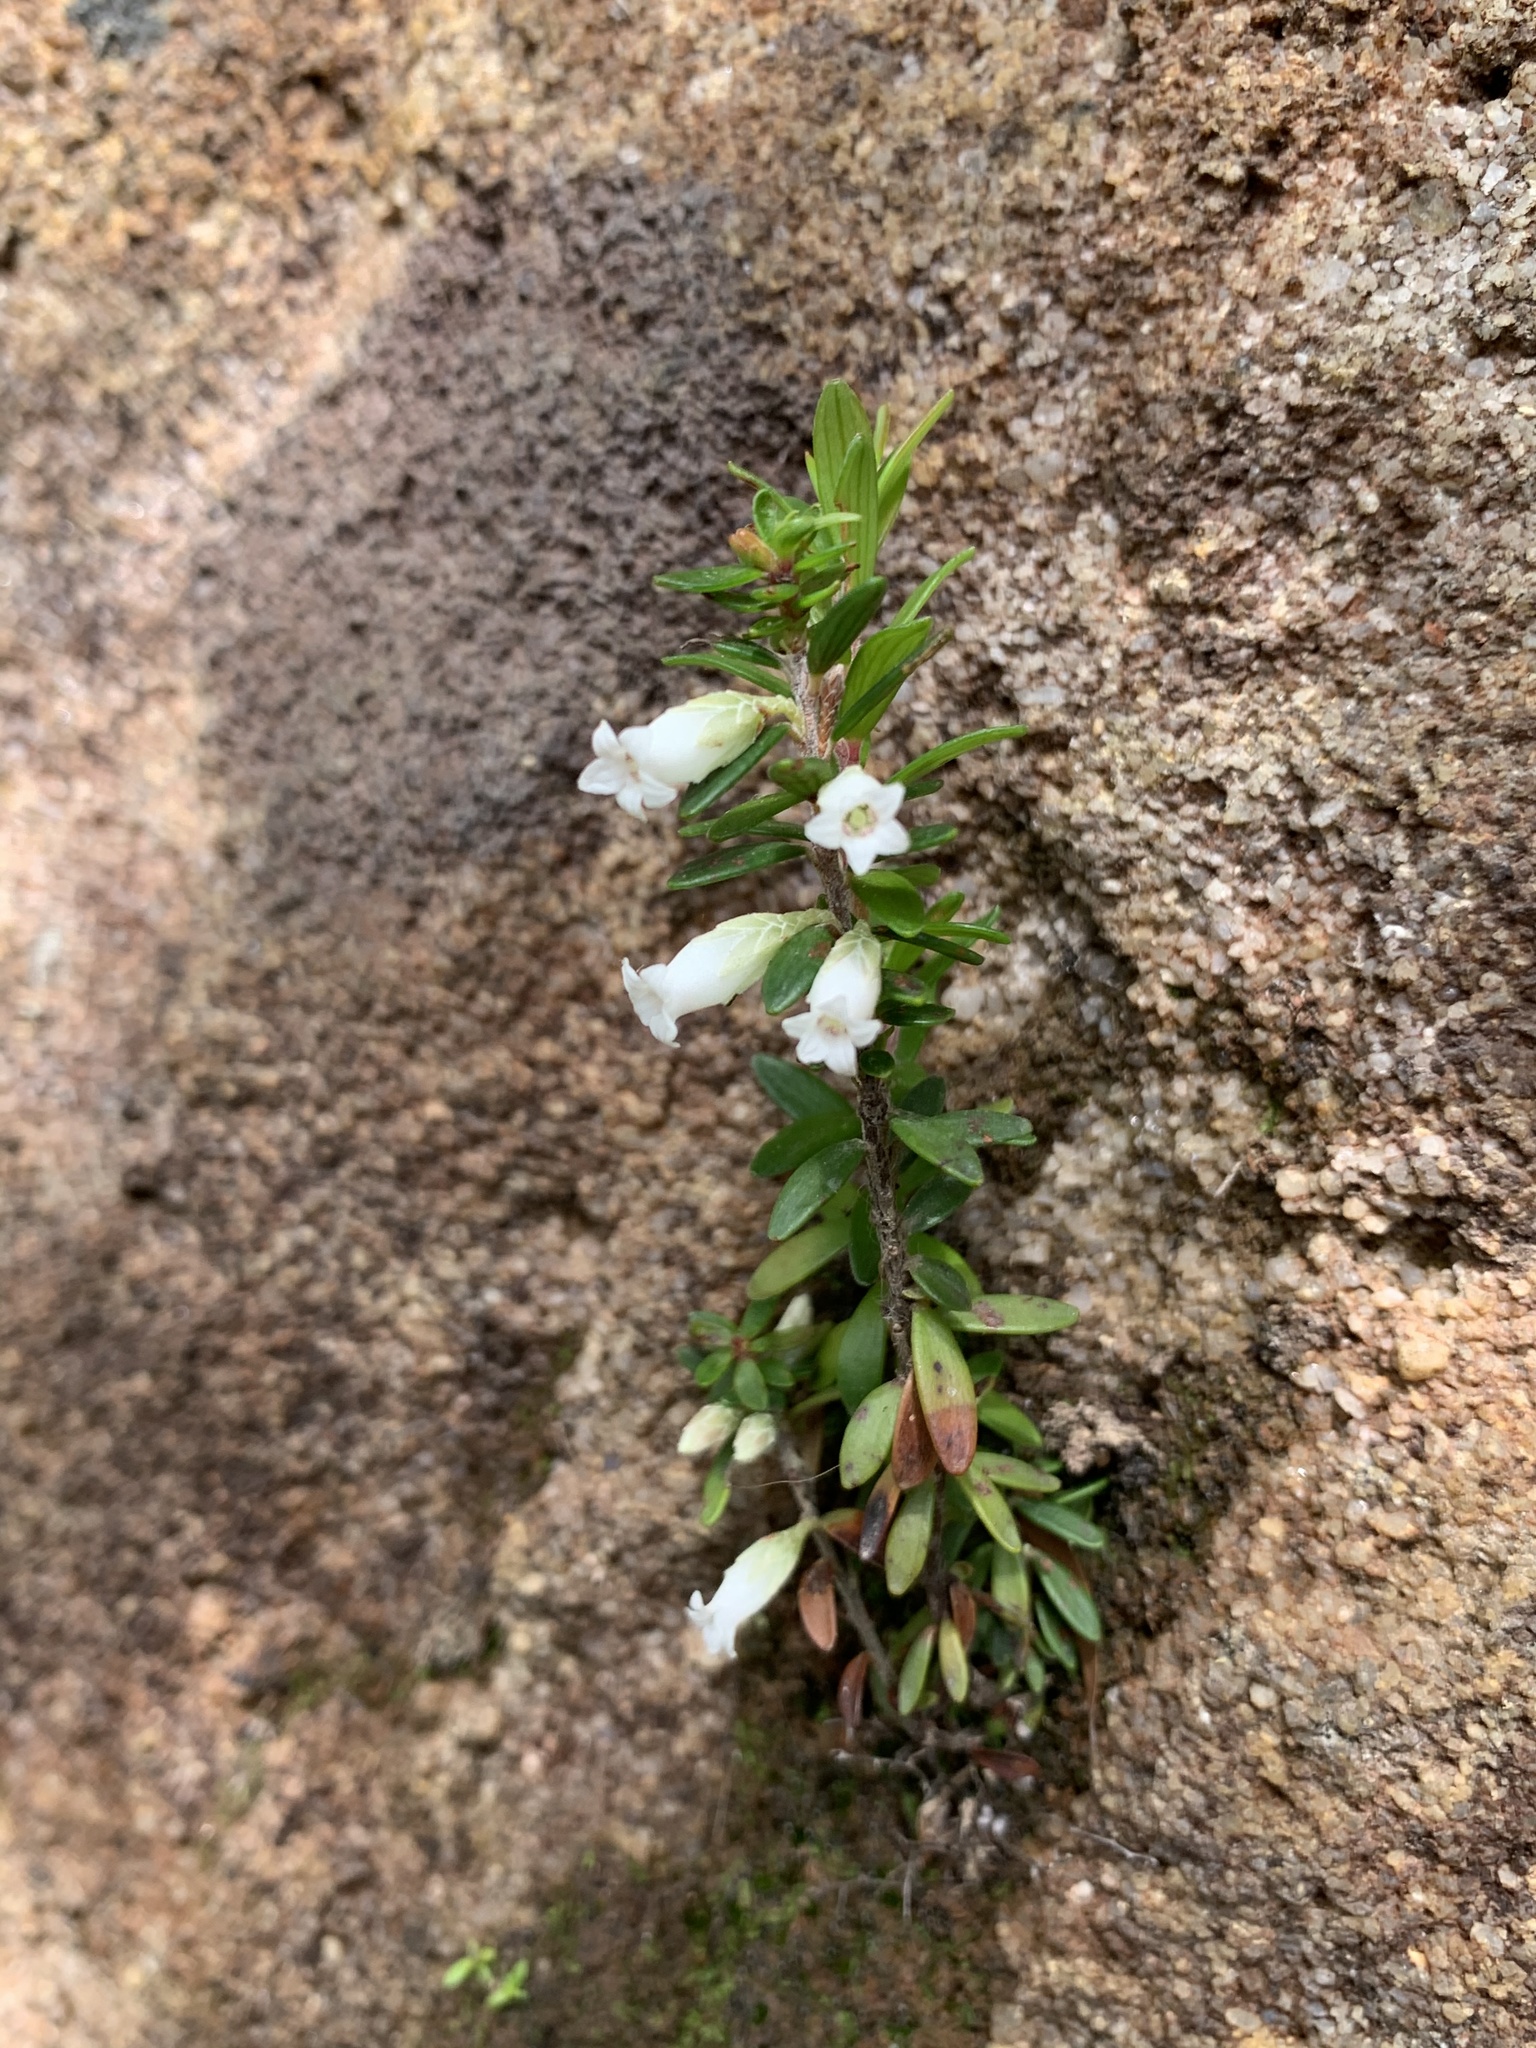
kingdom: Plantae
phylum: Tracheophyta
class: Magnoliopsida
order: Ericales
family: Ericaceae
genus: Epacris
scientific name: Epacris lithophila
